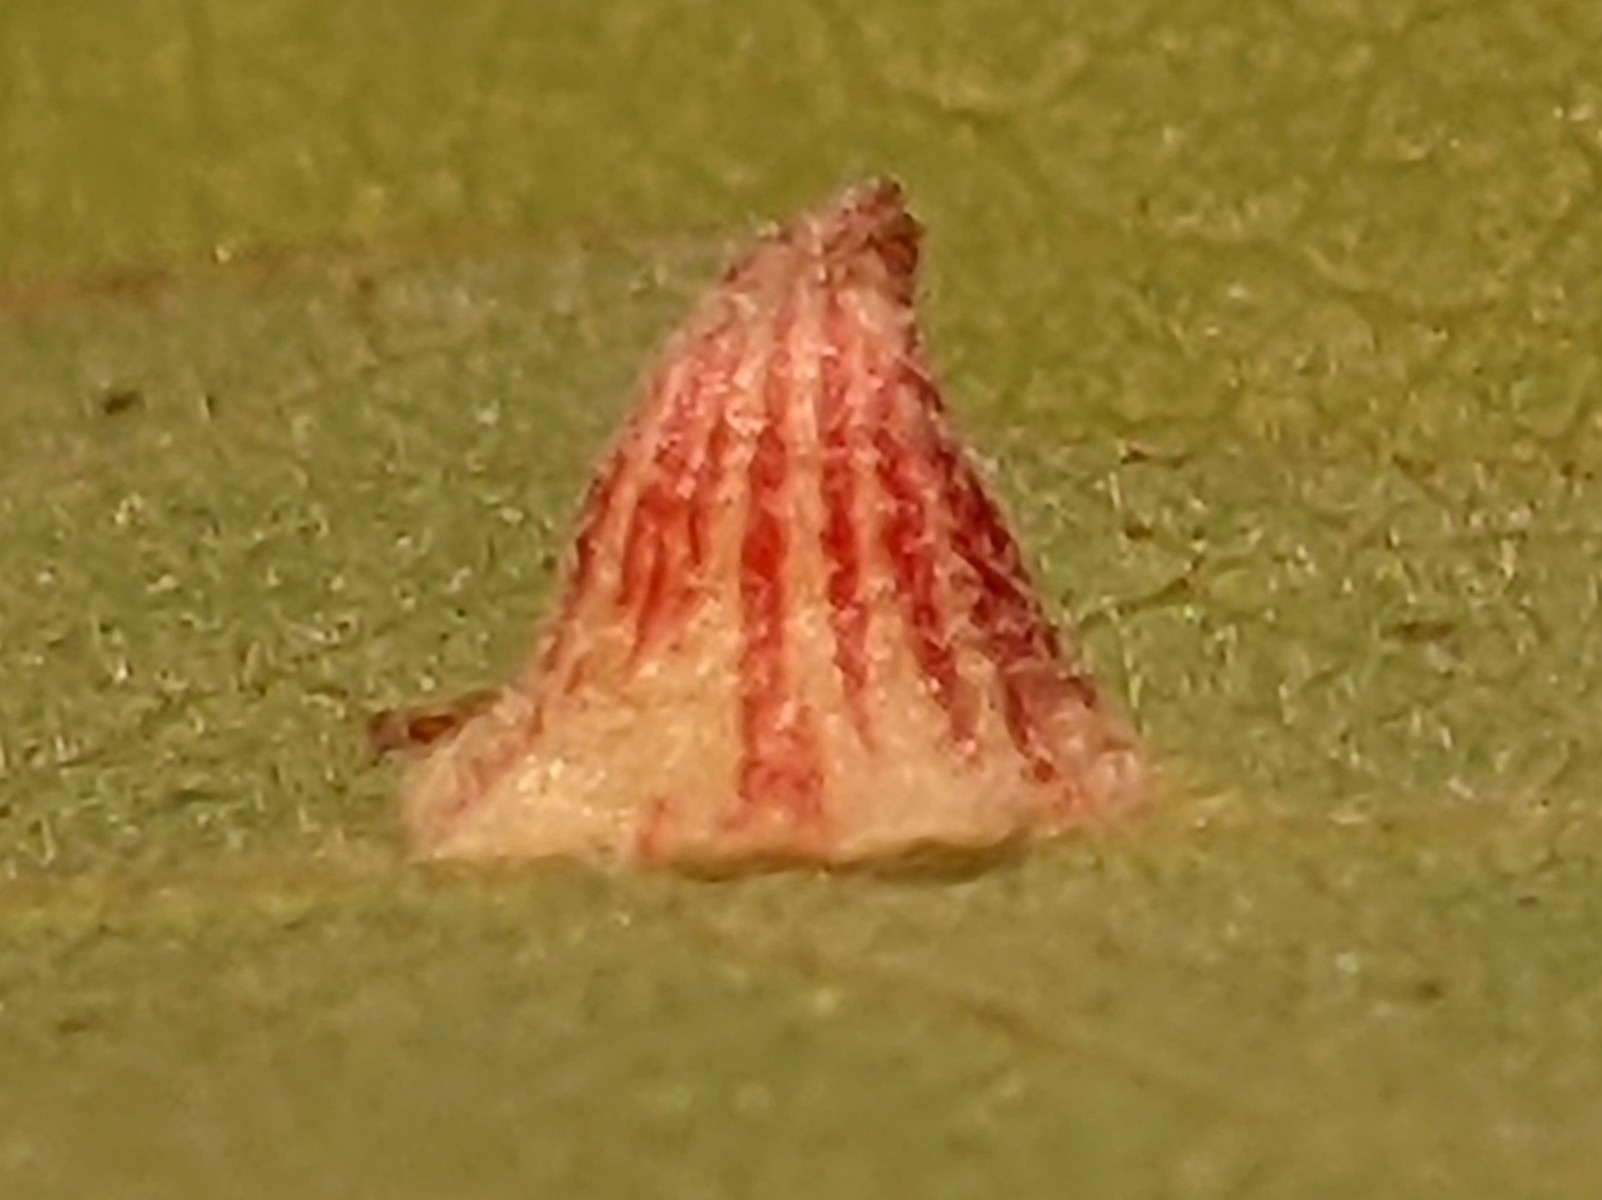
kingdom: Animalia
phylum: Arthropoda
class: Insecta
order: Hymenoptera
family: Cynipidae
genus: Andricus
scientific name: Andricus
